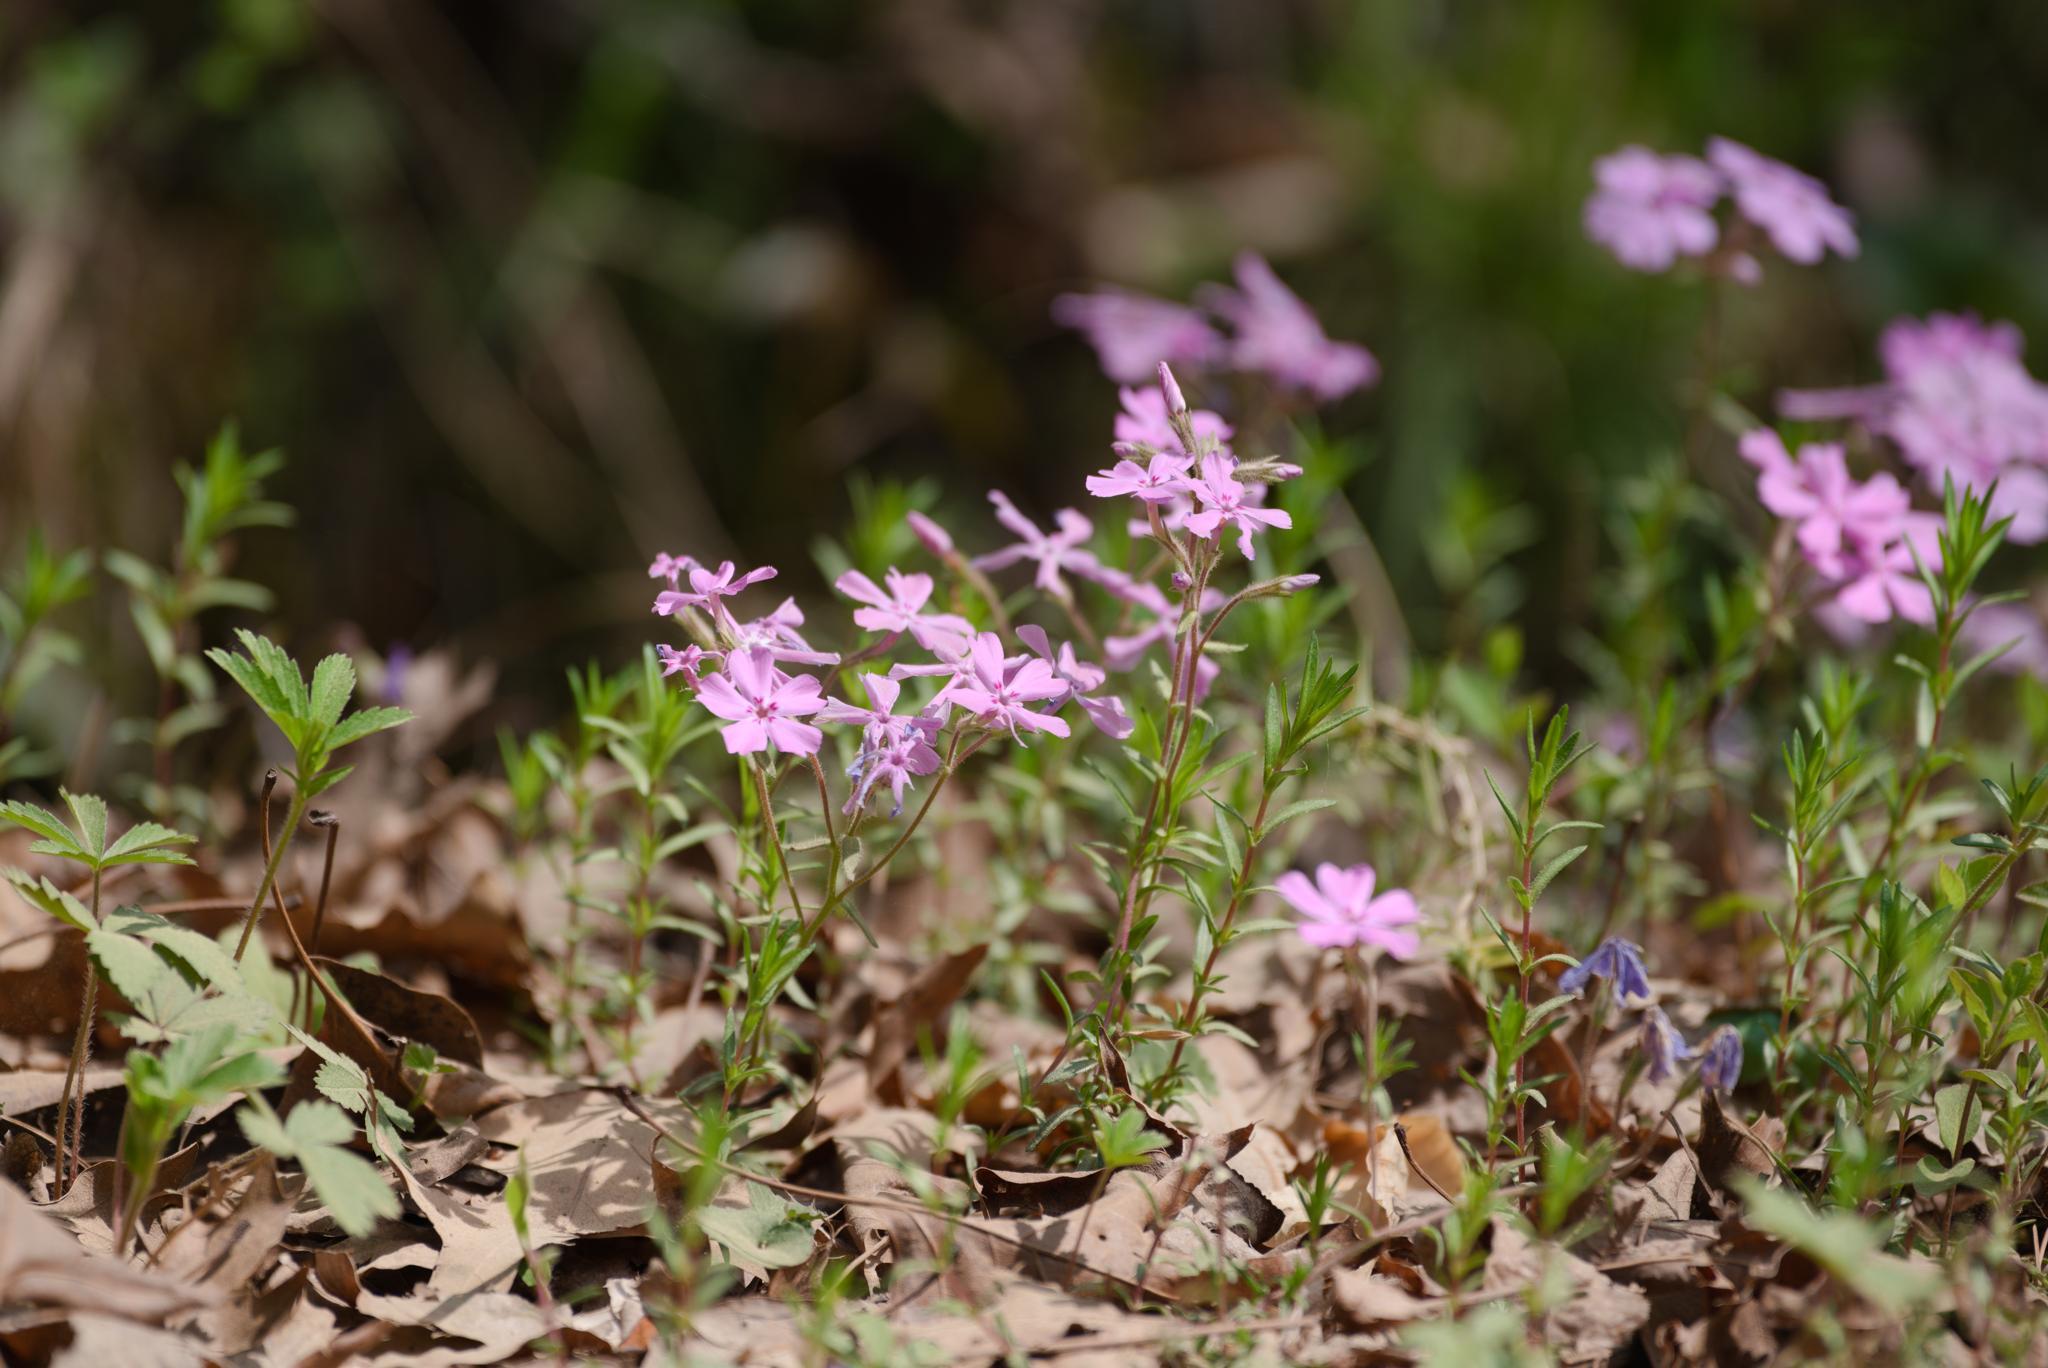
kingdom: Plantae
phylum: Tracheophyta
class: Magnoliopsida
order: Ericales
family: Polemoniaceae
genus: Phlox
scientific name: Phlox nivalis
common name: Trailing phlox
